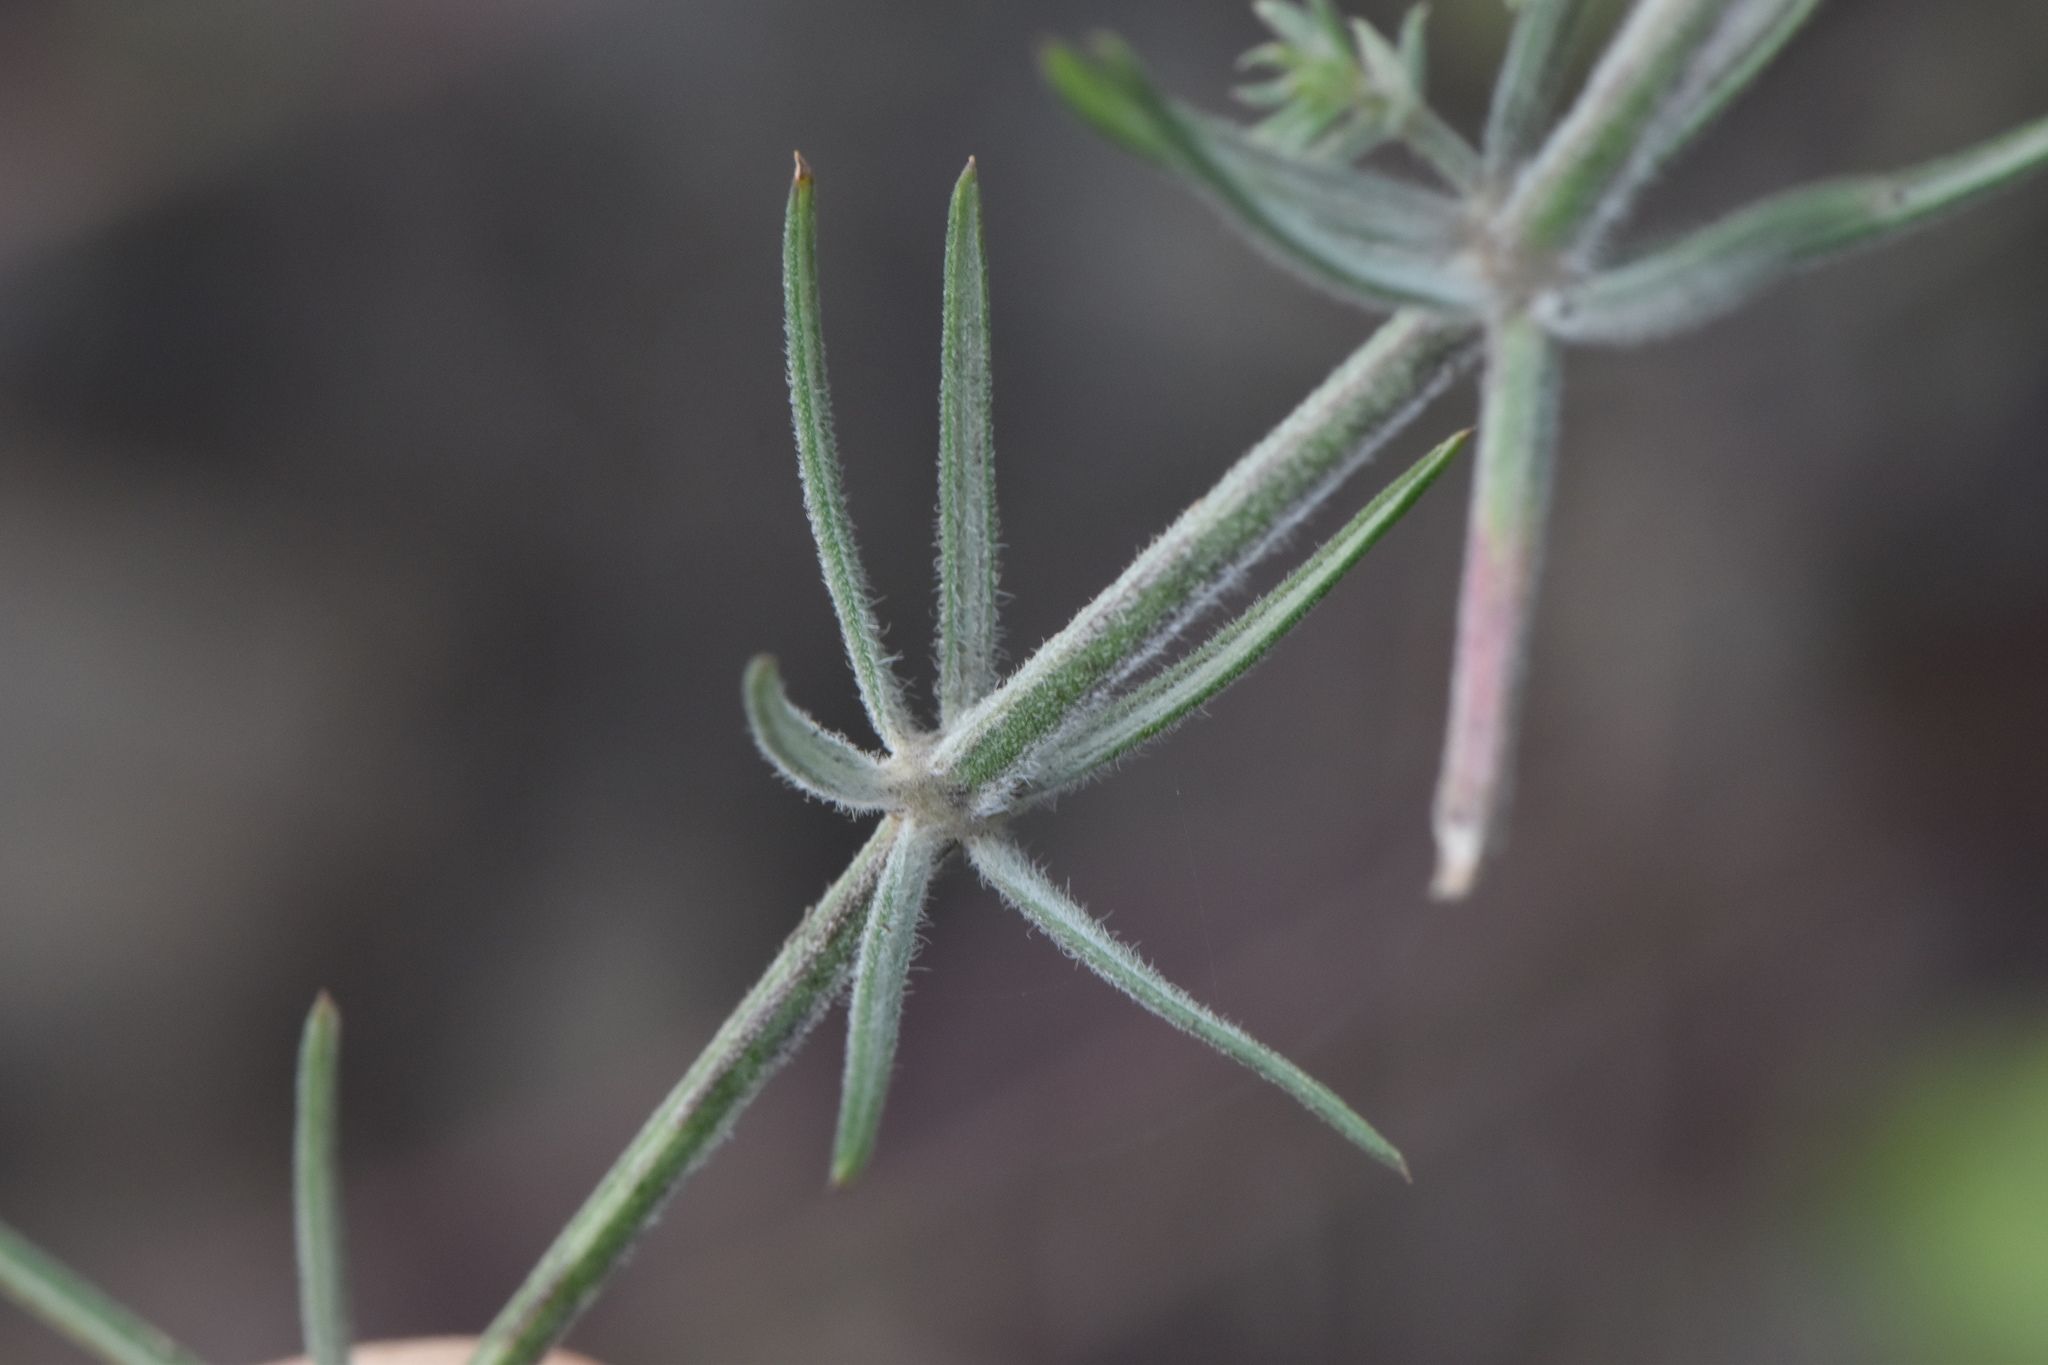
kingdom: Plantae
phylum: Tracheophyta
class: Magnoliopsida
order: Gentianales
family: Rubiaceae
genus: Hexaphylla
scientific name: Hexaphylla hirsuta
